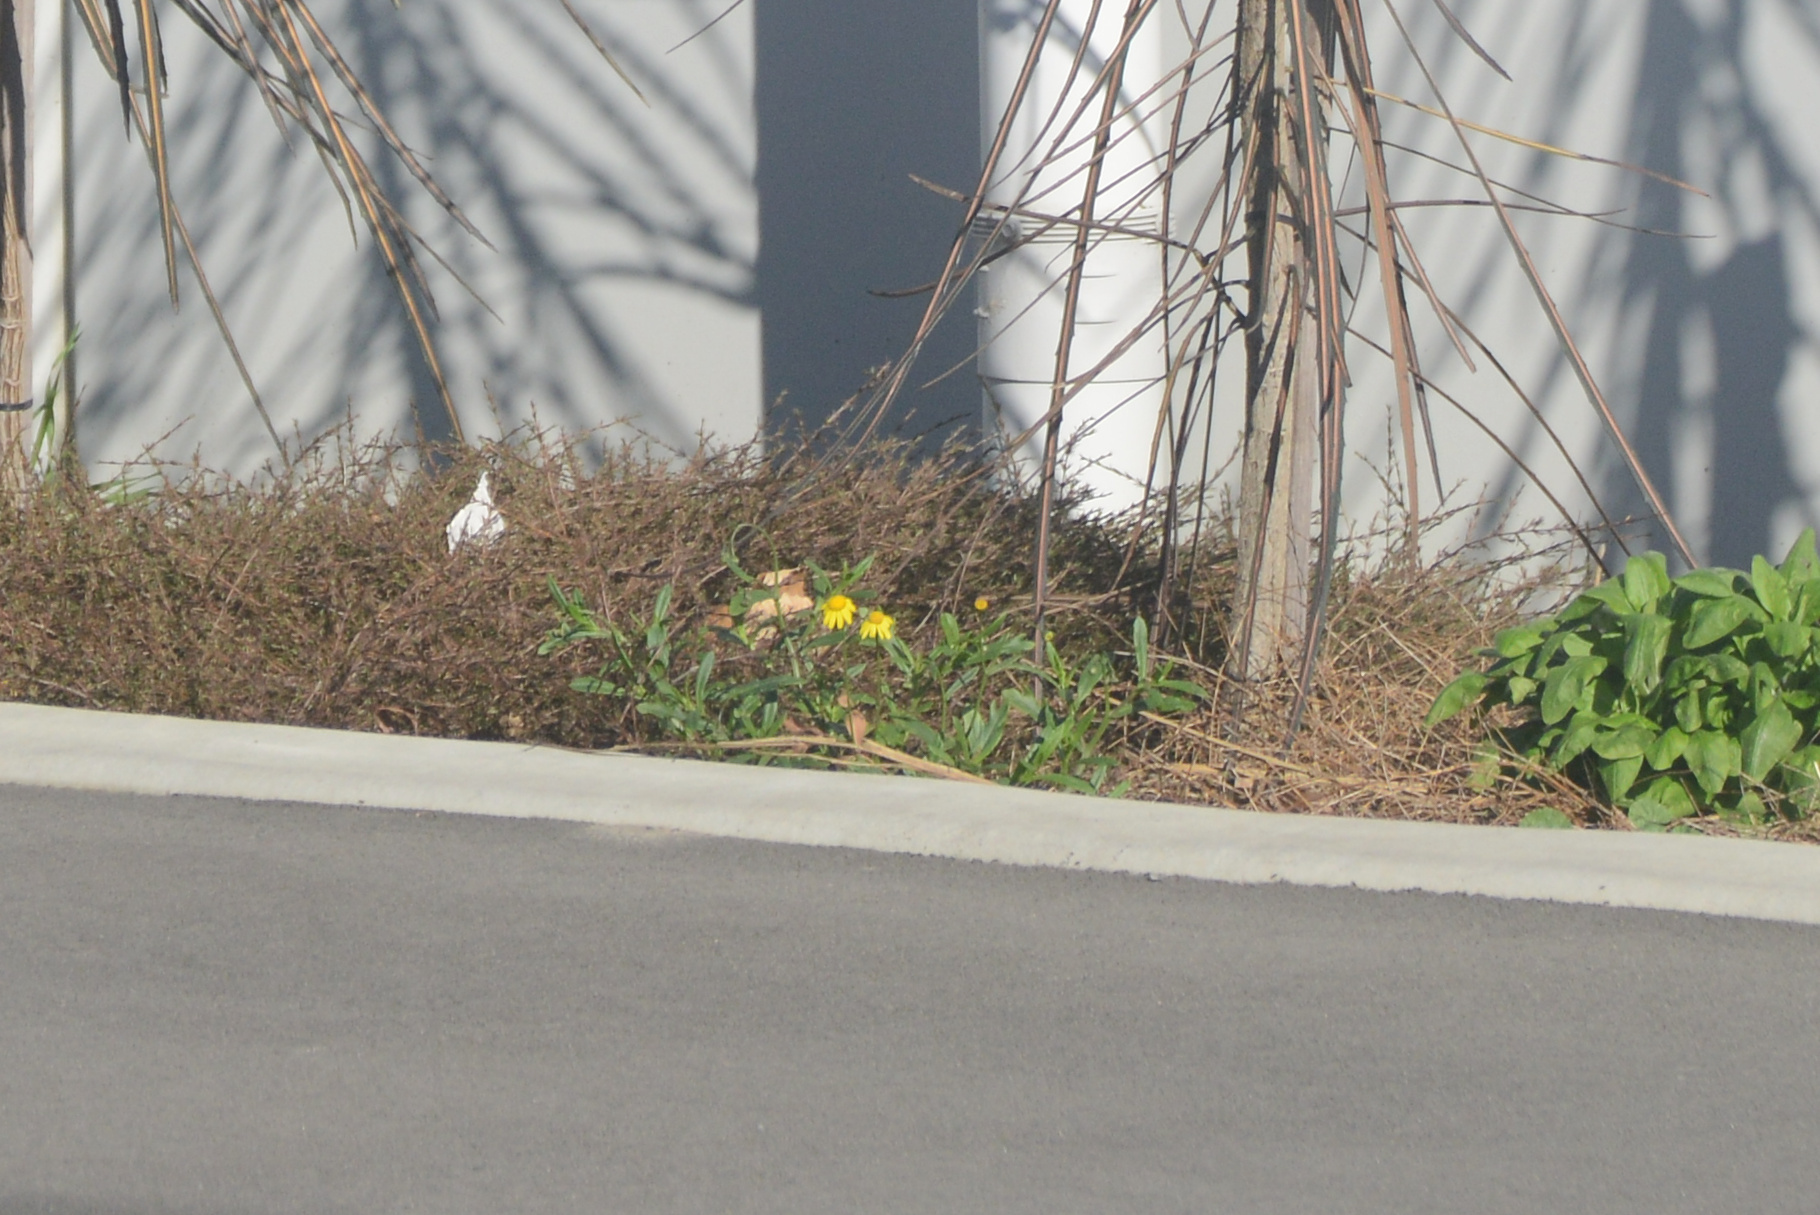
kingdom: Plantae
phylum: Tracheophyta
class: Magnoliopsida
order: Asterales
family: Asteraceae
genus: Senecio
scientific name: Senecio skirrhodon
